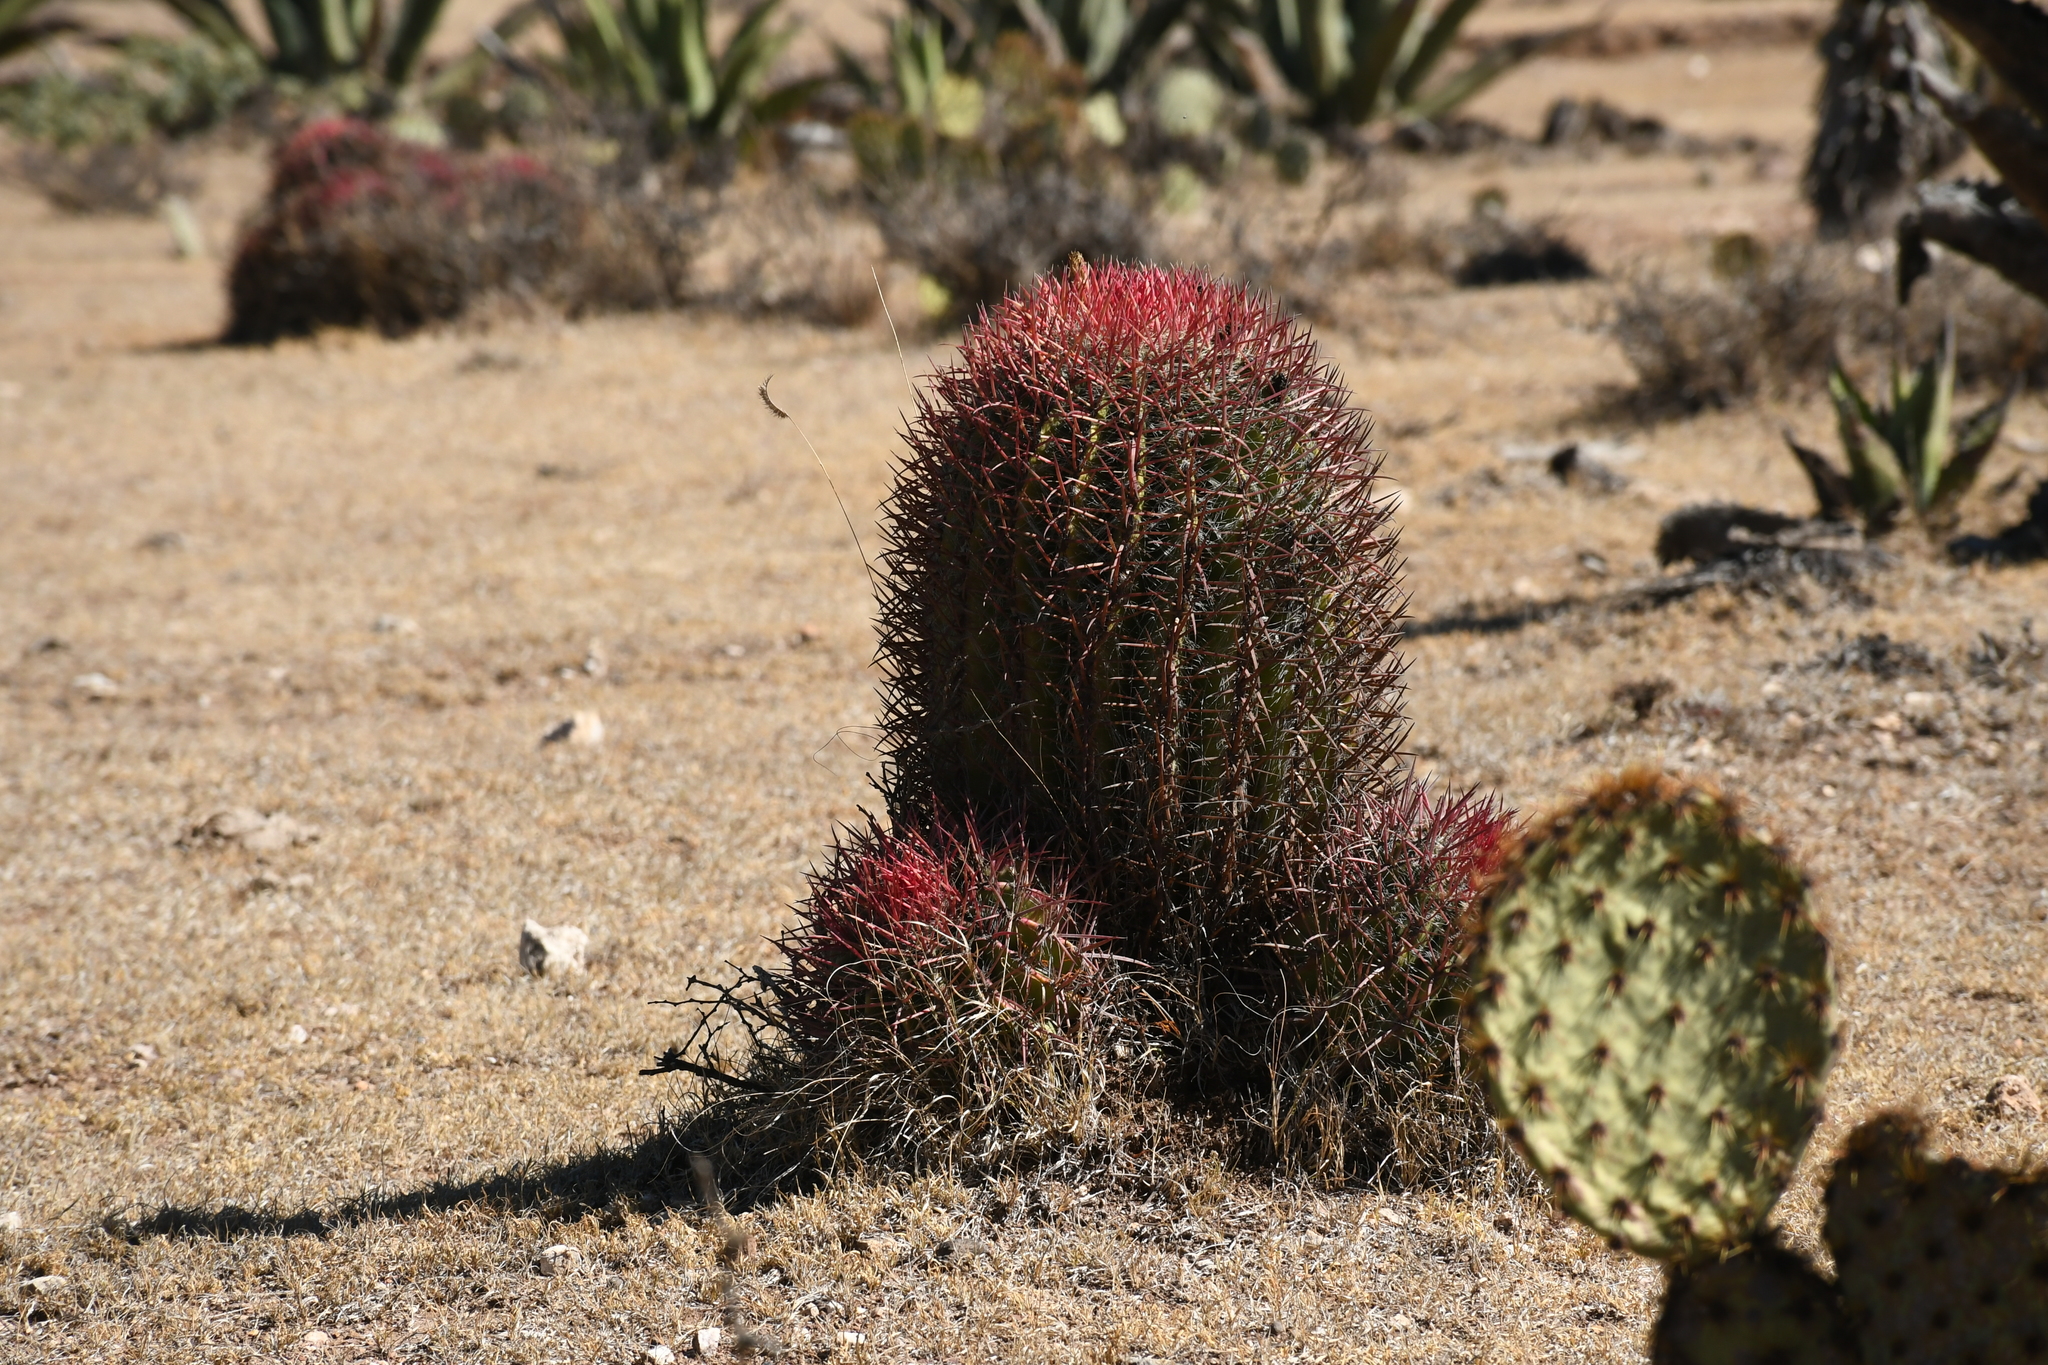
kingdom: Plantae
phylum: Tracheophyta
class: Magnoliopsida
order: Caryophyllales
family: Cactaceae
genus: Ferocactus
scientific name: Ferocactus pilosus
